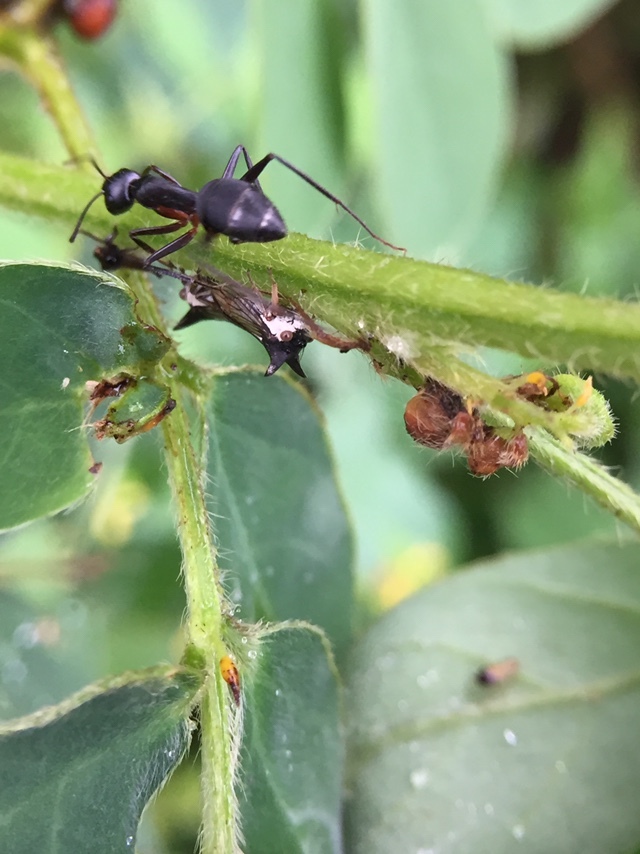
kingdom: Animalia
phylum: Arthropoda
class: Insecta
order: Hymenoptera
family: Formicidae
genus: Camponotus
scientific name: Camponotus compressus
